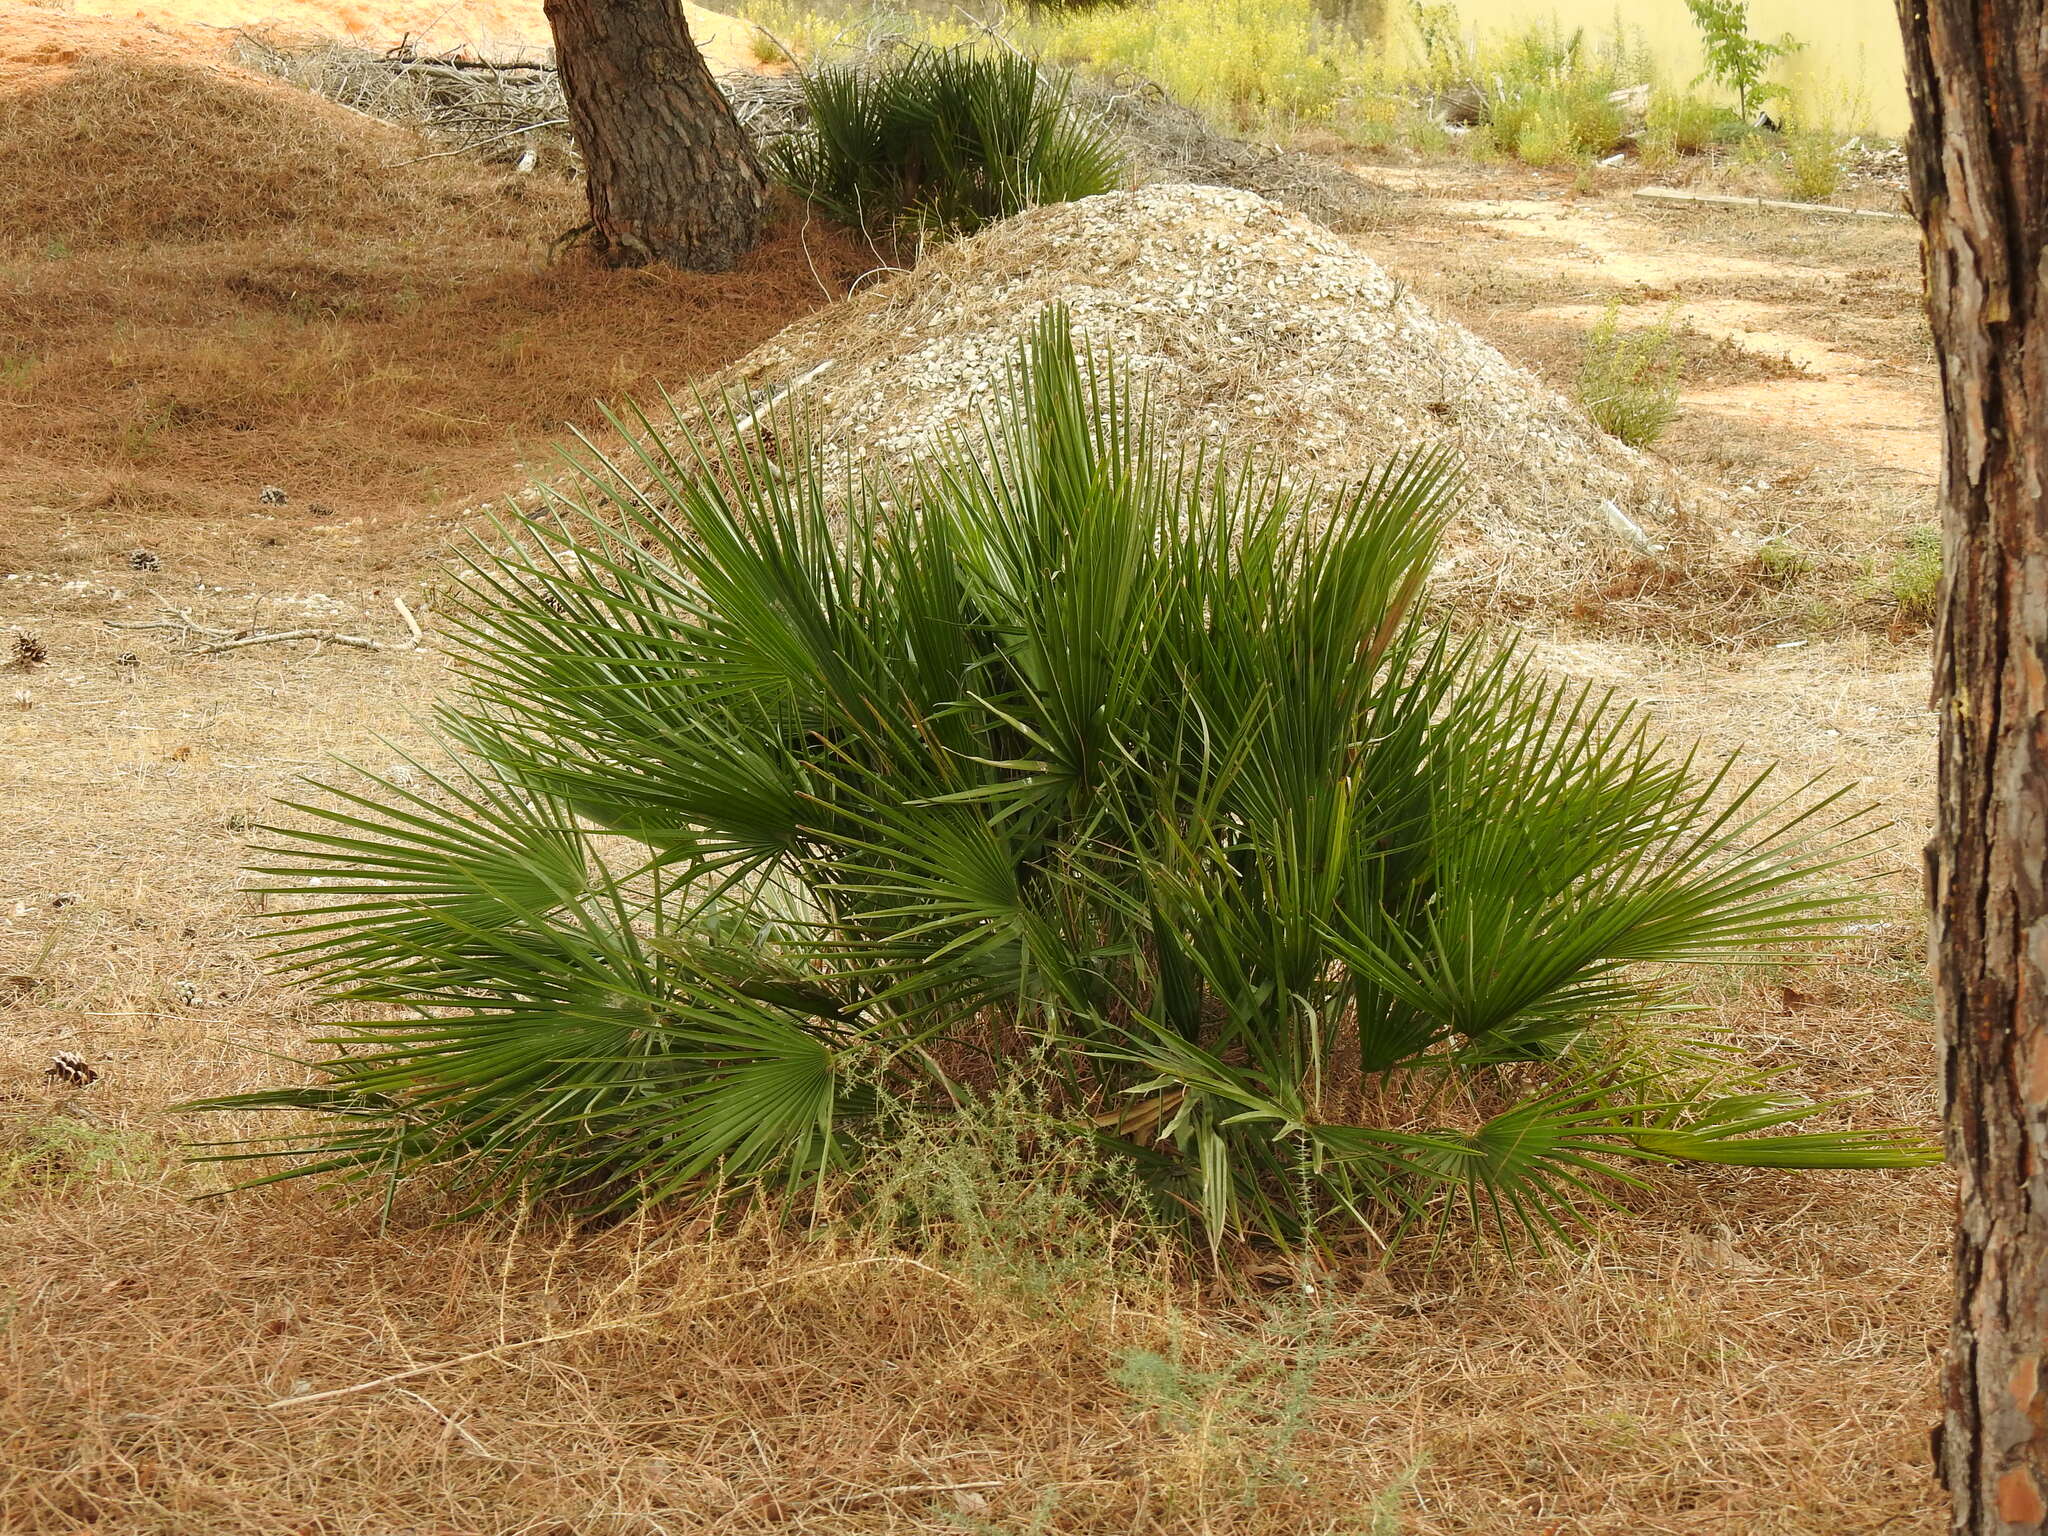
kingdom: Plantae
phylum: Tracheophyta
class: Liliopsida
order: Arecales
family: Arecaceae
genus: Chamaerops
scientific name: Chamaerops humilis
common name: Dwarf fan palm
